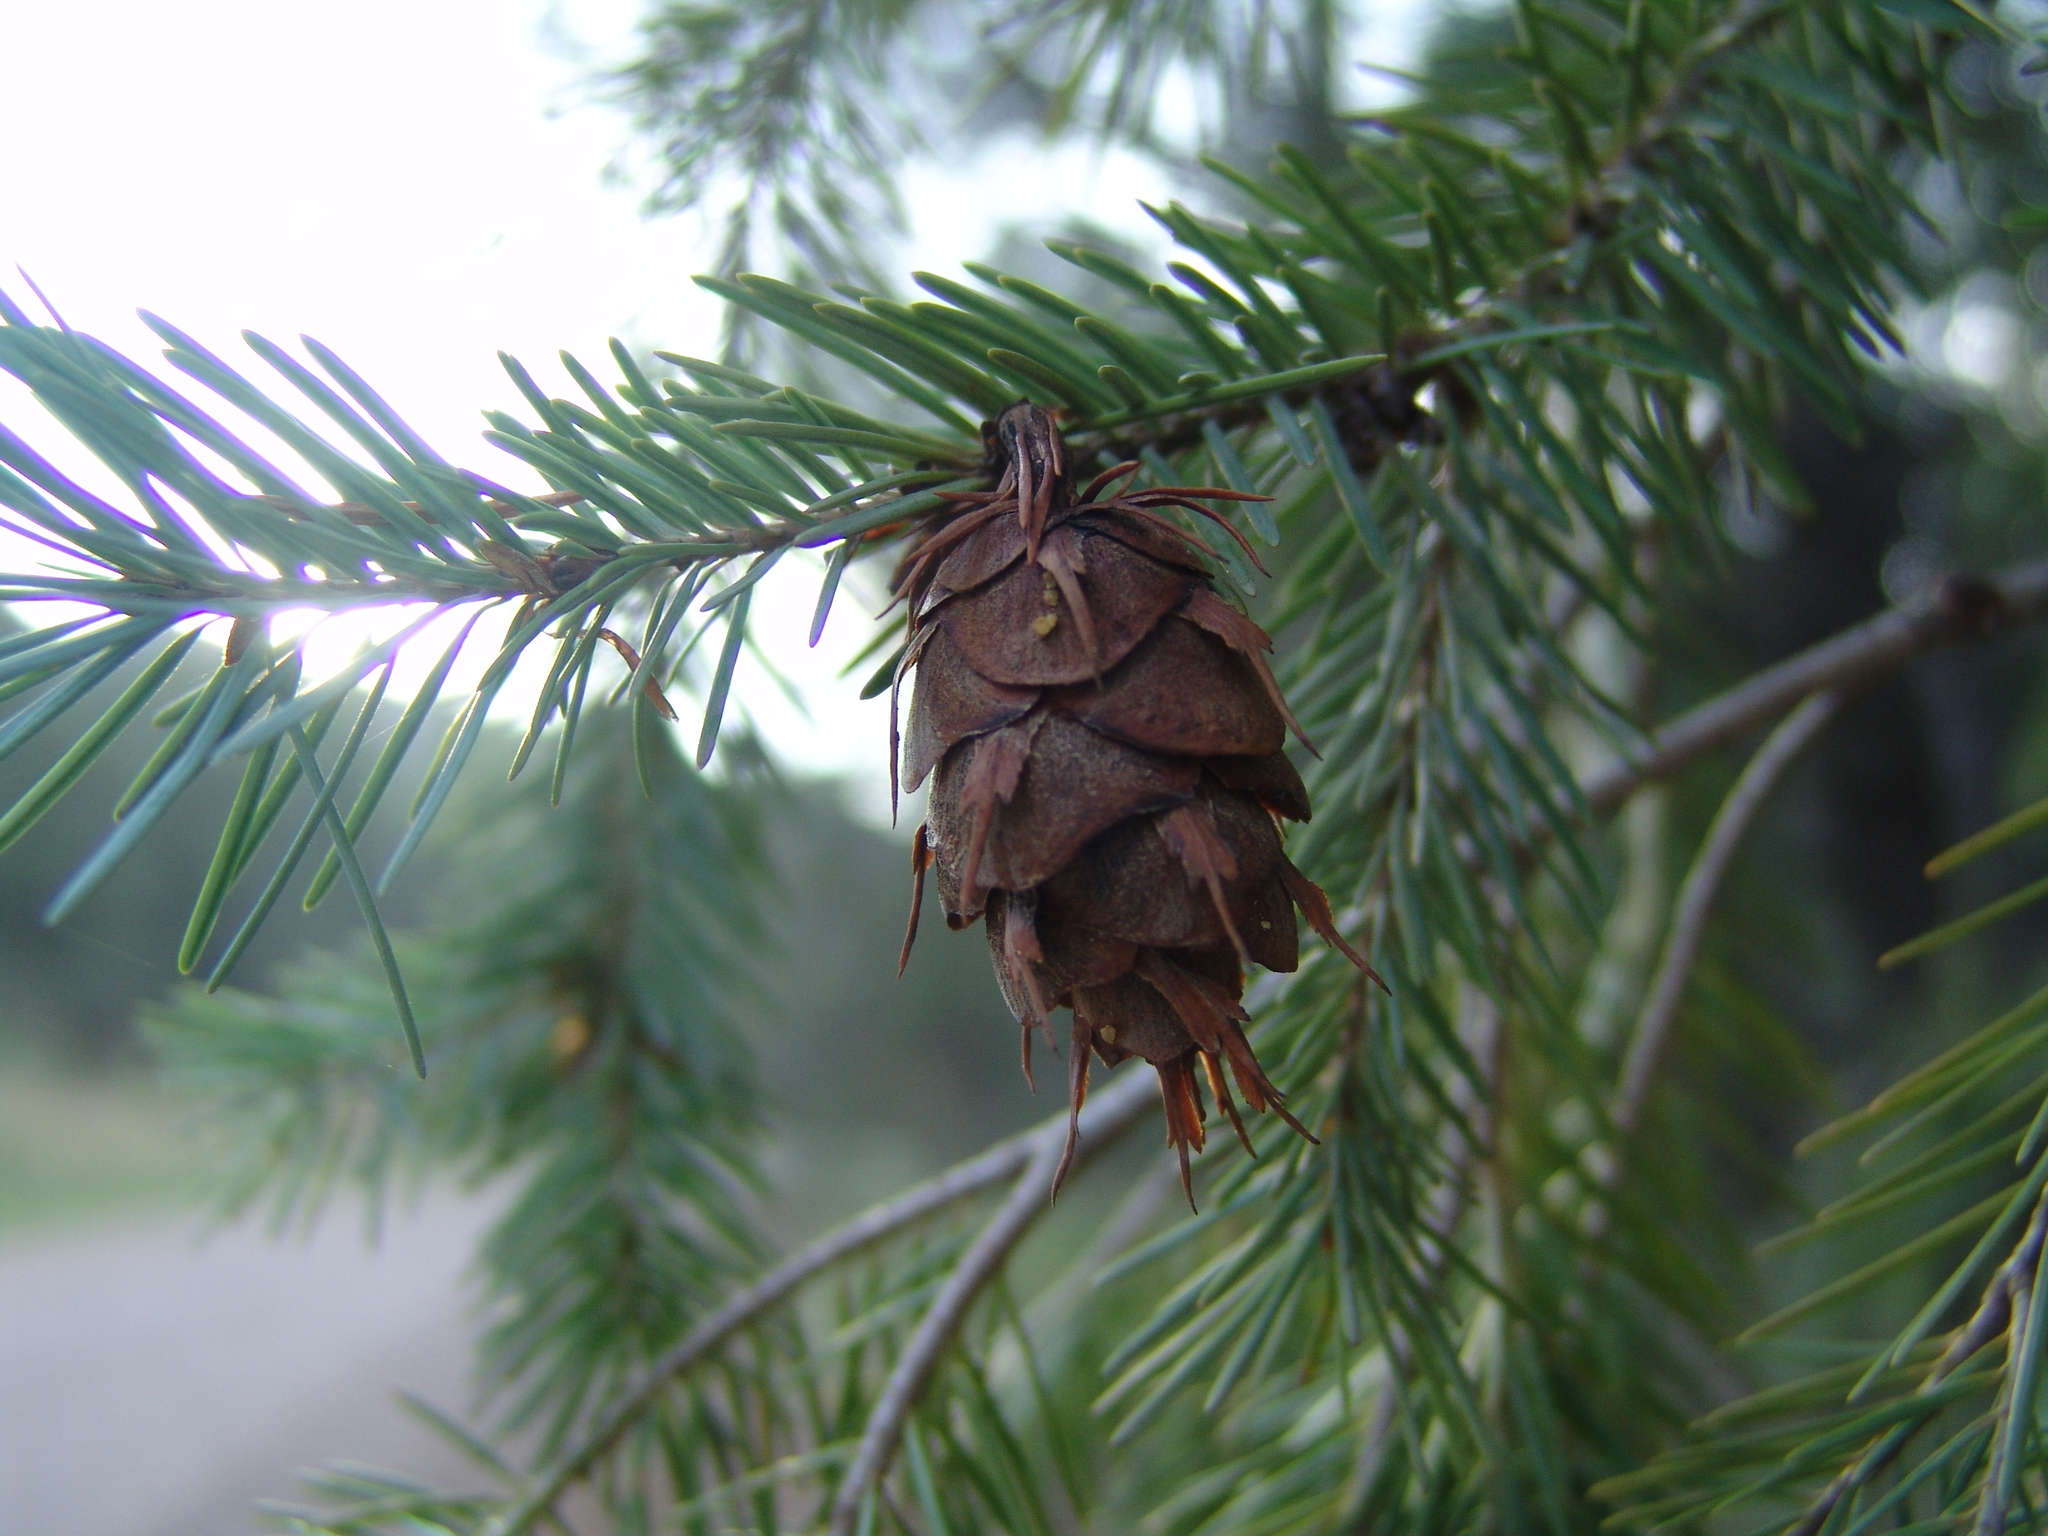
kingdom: Plantae
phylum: Tracheophyta
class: Pinopsida
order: Pinales
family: Pinaceae
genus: Pseudotsuga
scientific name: Pseudotsuga menziesii
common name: Douglas fir
